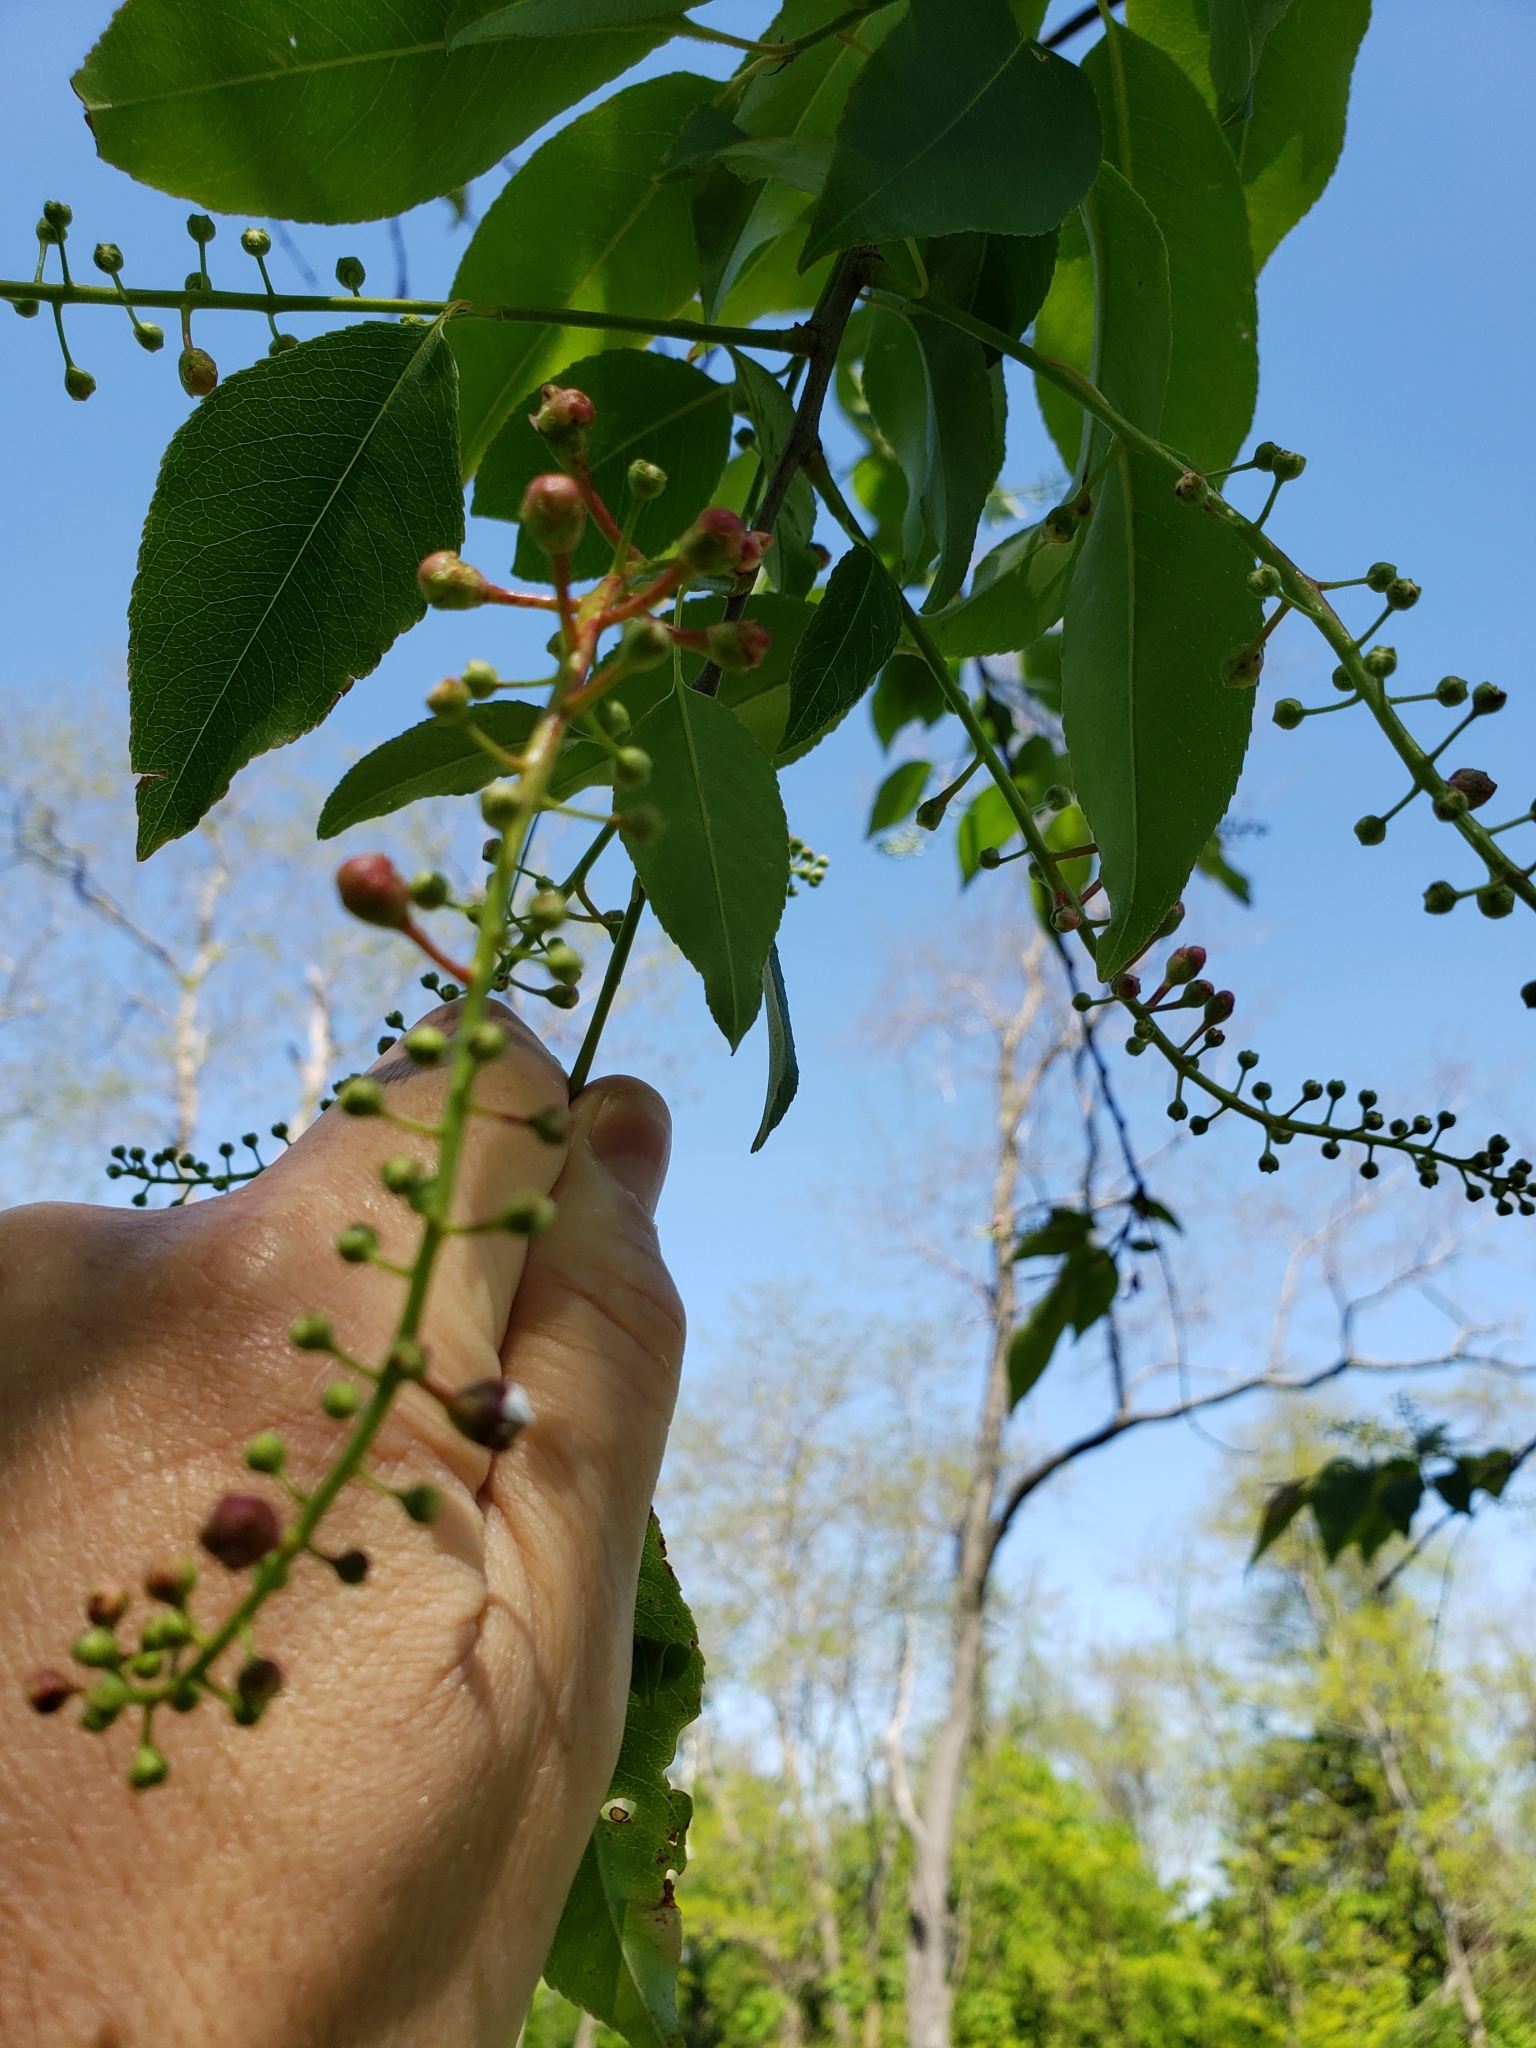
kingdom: Plantae
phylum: Tracheophyta
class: Magnoliopsida
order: Rosales
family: Rosaceae
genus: Prunus
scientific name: Prunus serotina
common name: Black cherry
